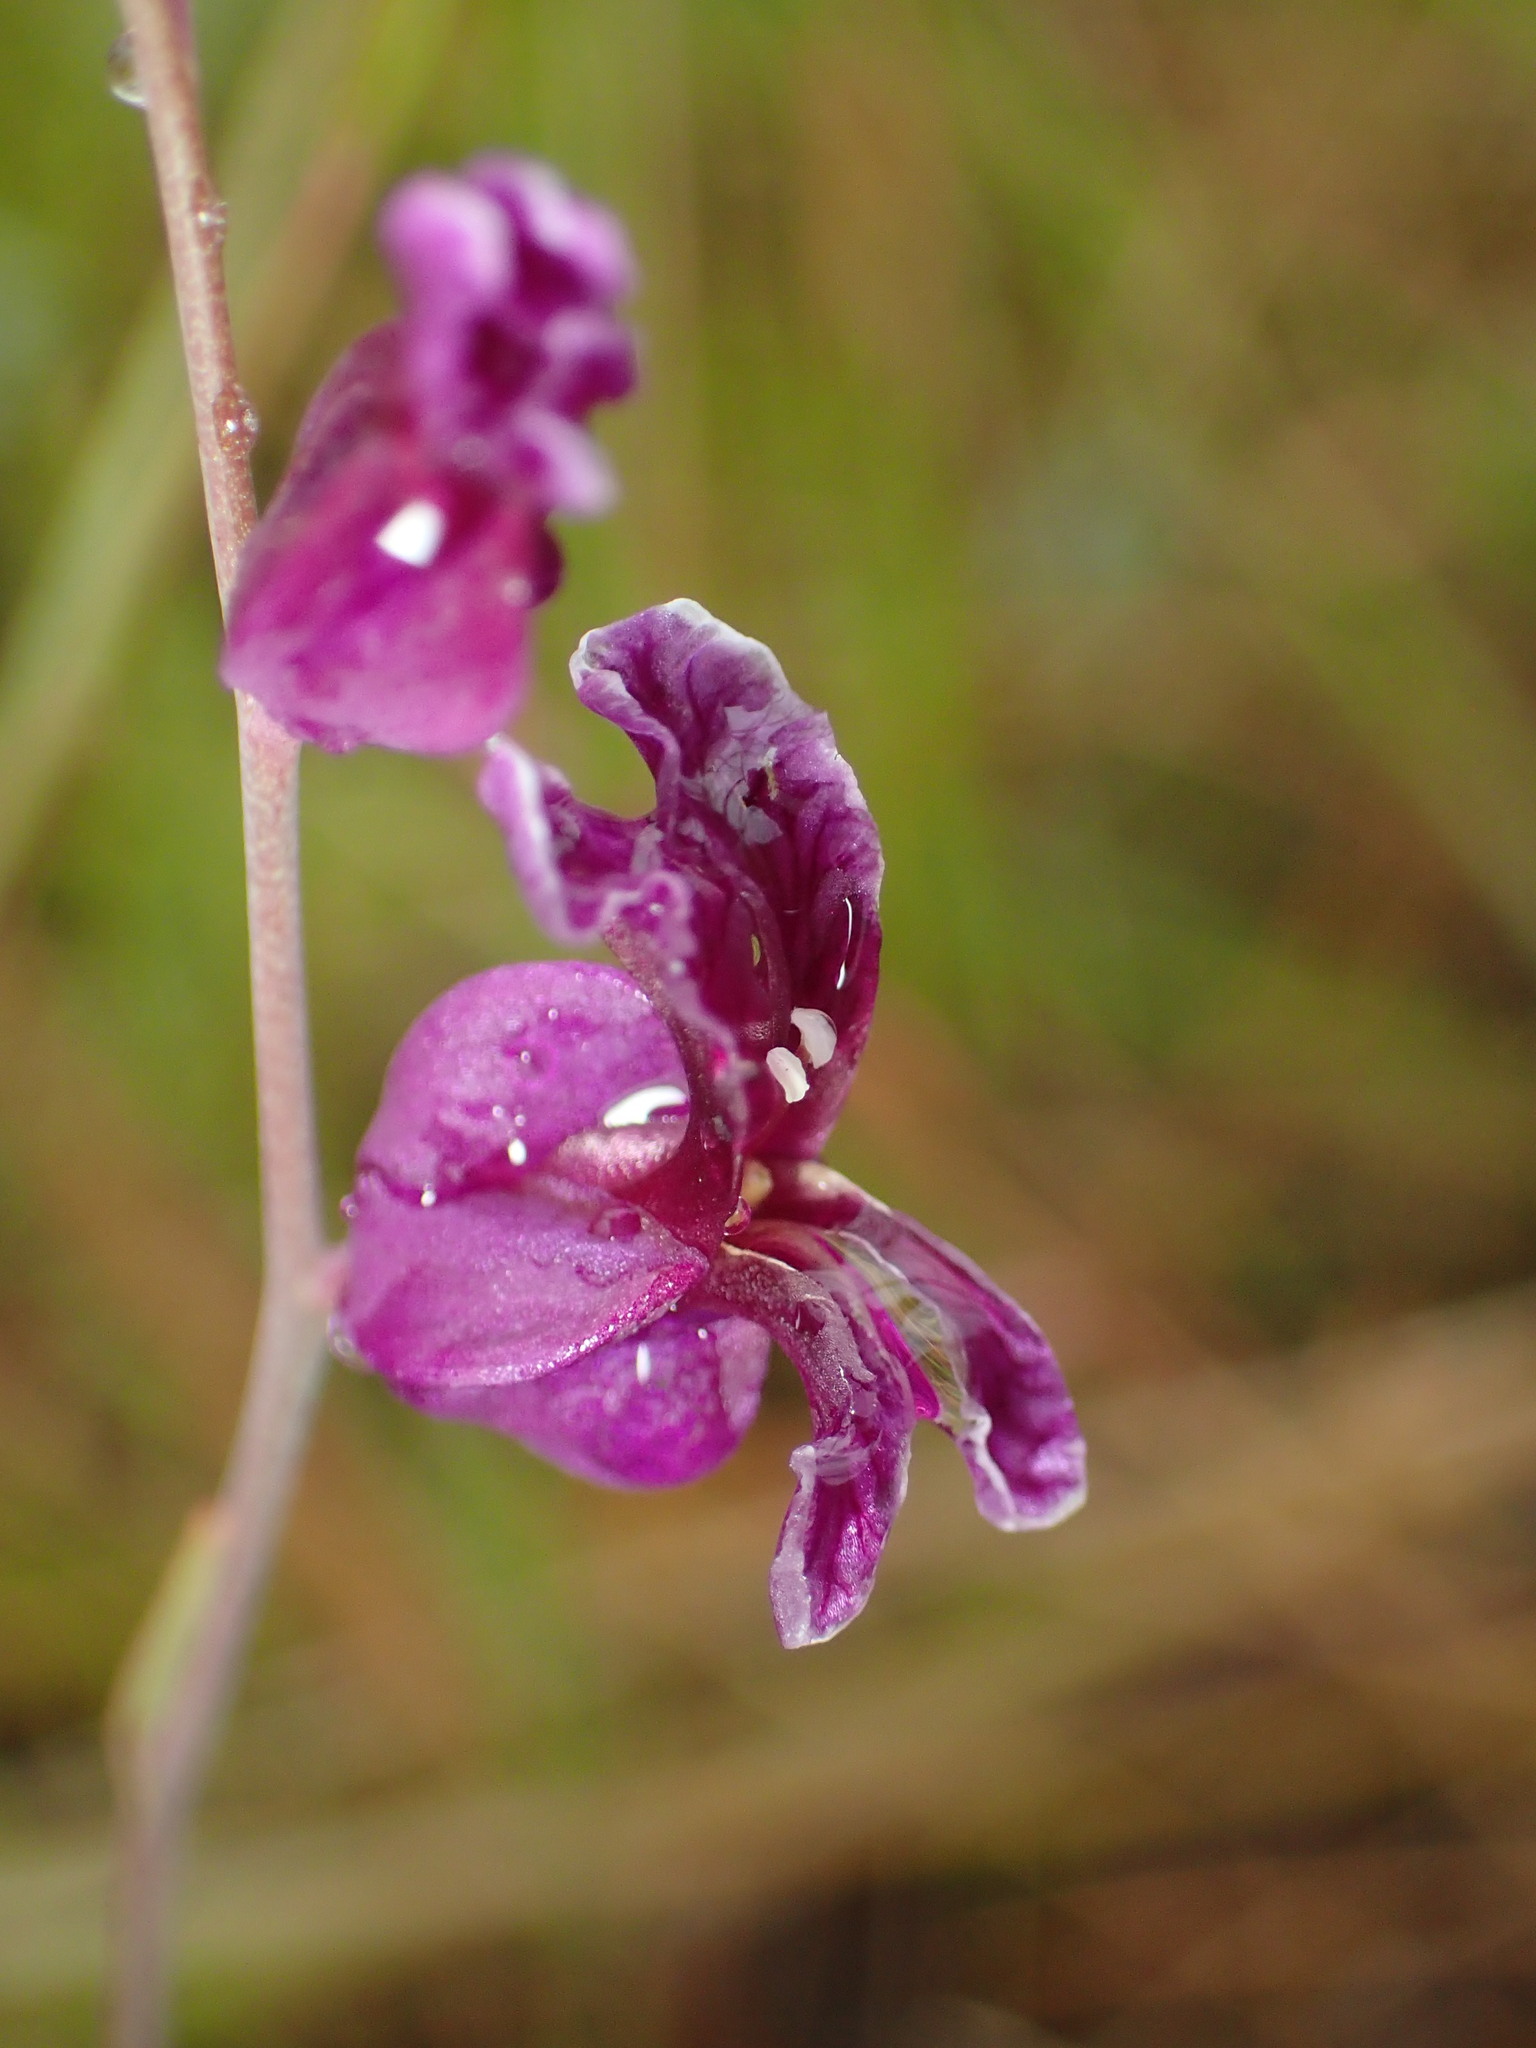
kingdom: Plantae
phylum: Tracheophyta
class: Magnoliopsida
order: Brassicales
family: Brassicaceae
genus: Streptanthus
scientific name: Streptanthus glandulosus
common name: Jewel-flower
